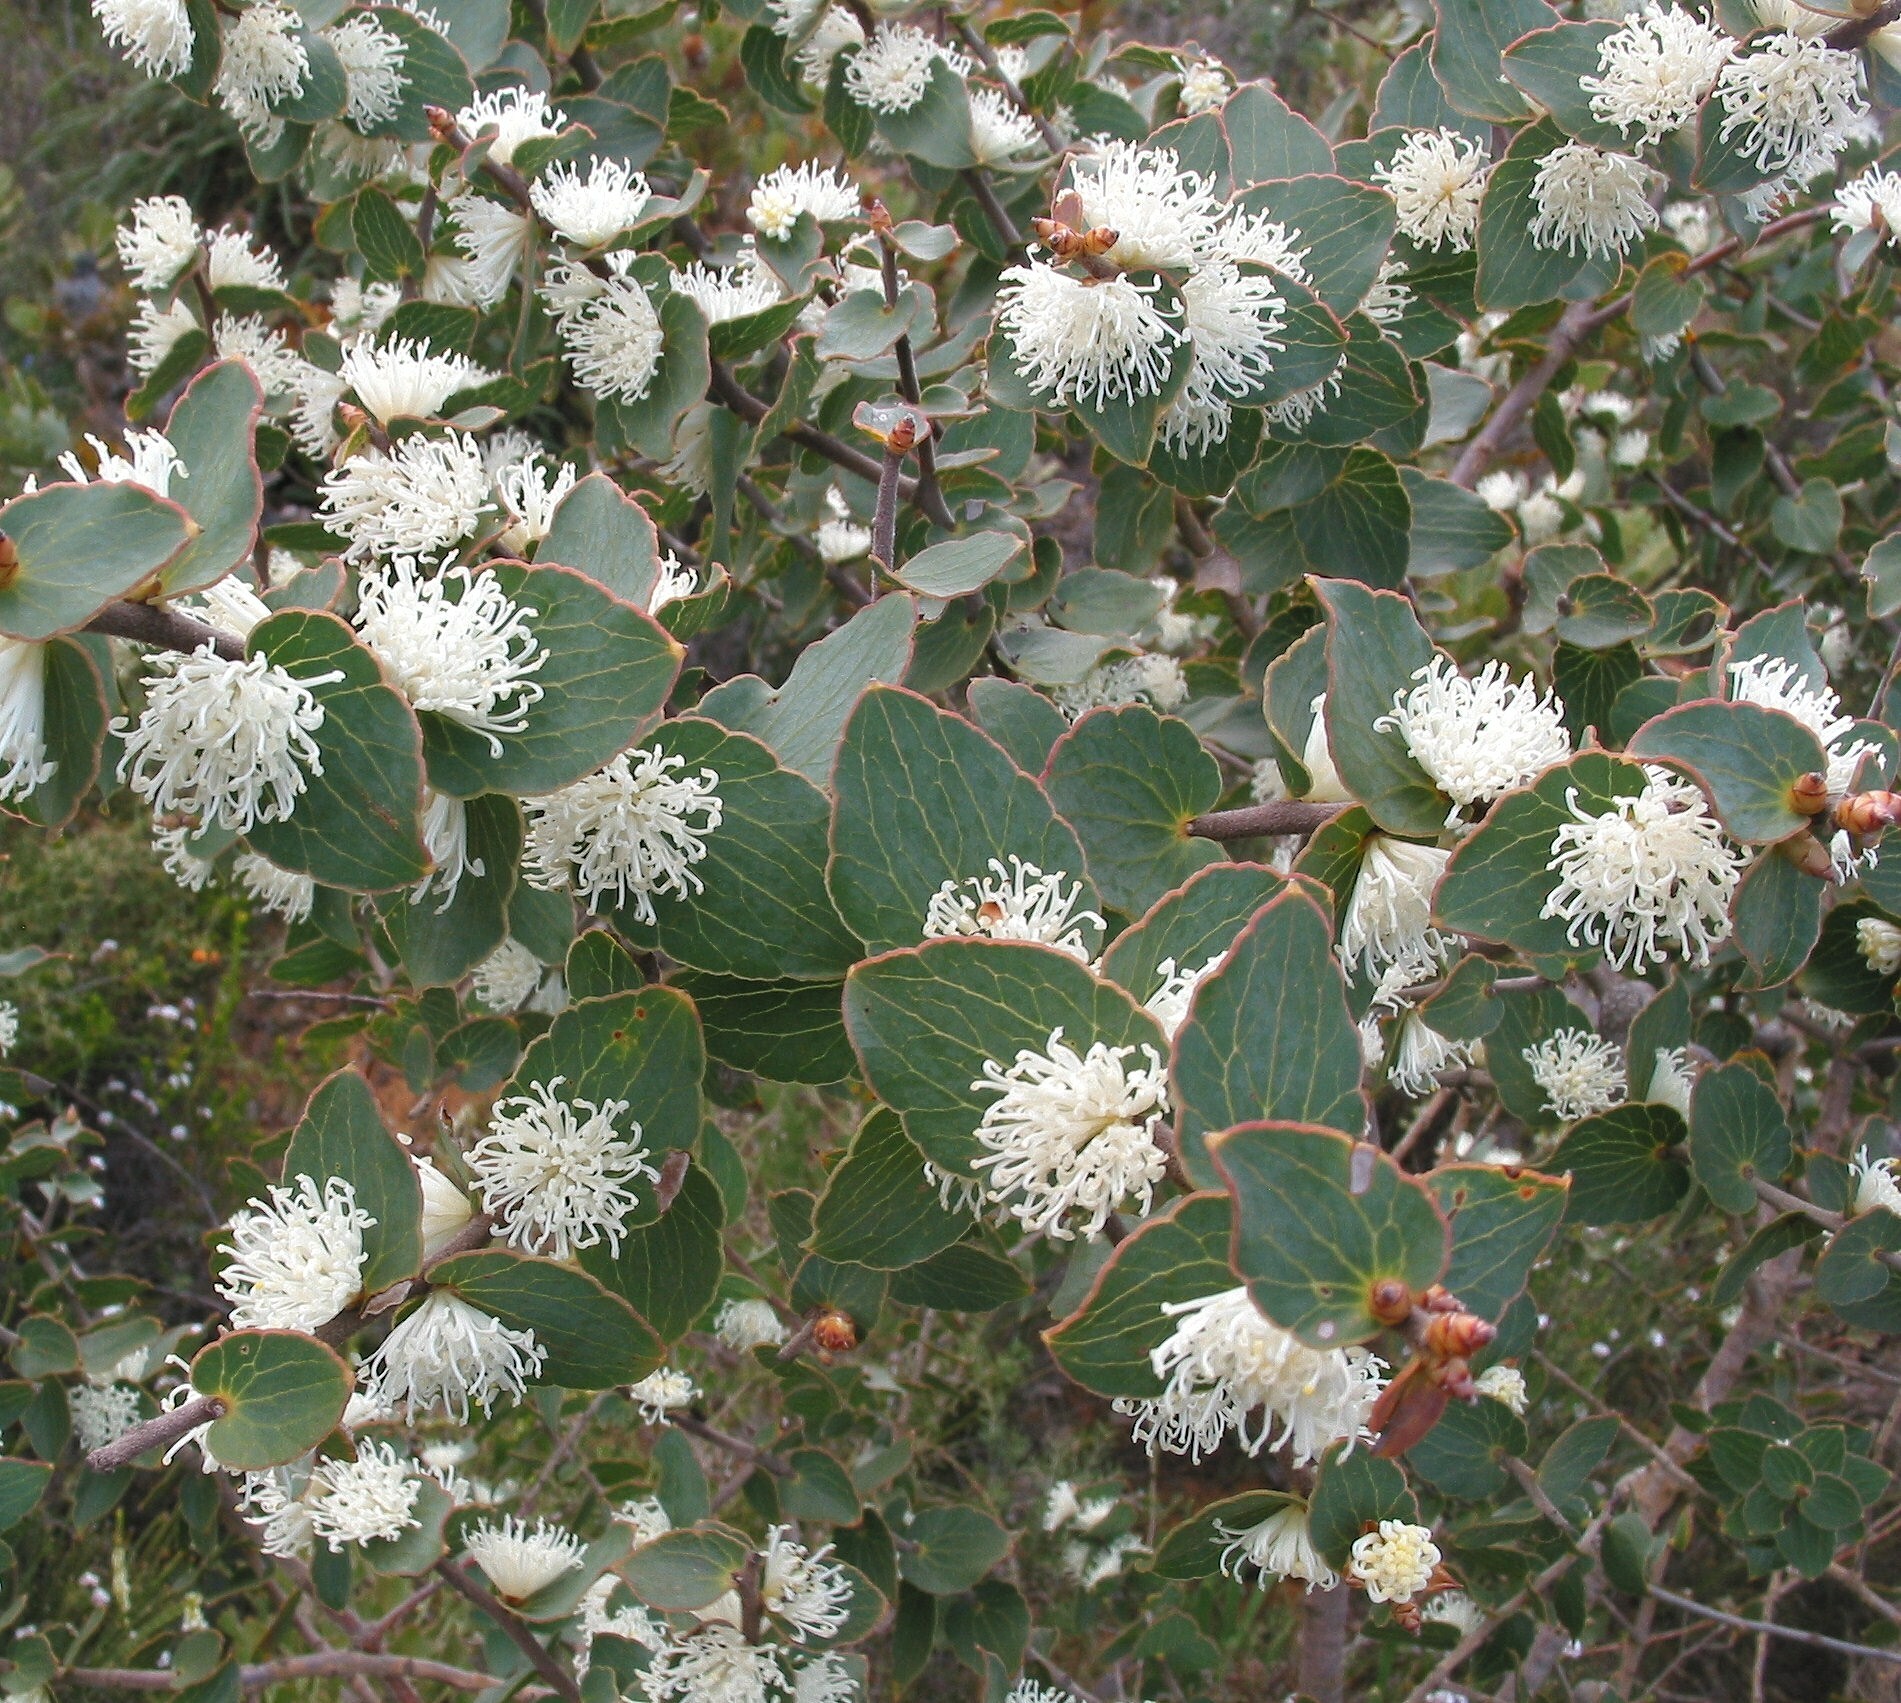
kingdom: Plantae
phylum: Tracheophyta
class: Magnoliopsida
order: Proteales
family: Proteaceae
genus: Hakea
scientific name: Hakea ferruginea
